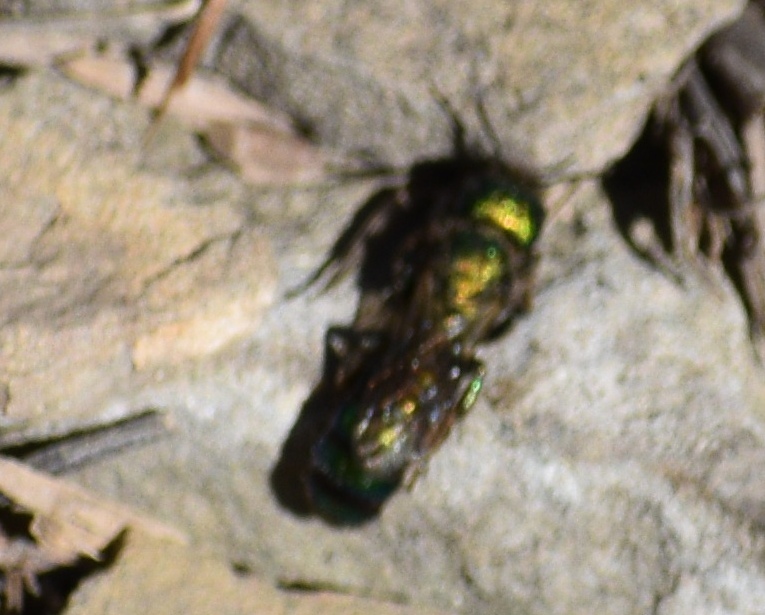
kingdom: Animalia
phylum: Arthropoda
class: Insecta
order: Hymenoptera
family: Megachilidae
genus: Hoplitis
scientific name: Hoplitis fulgida
